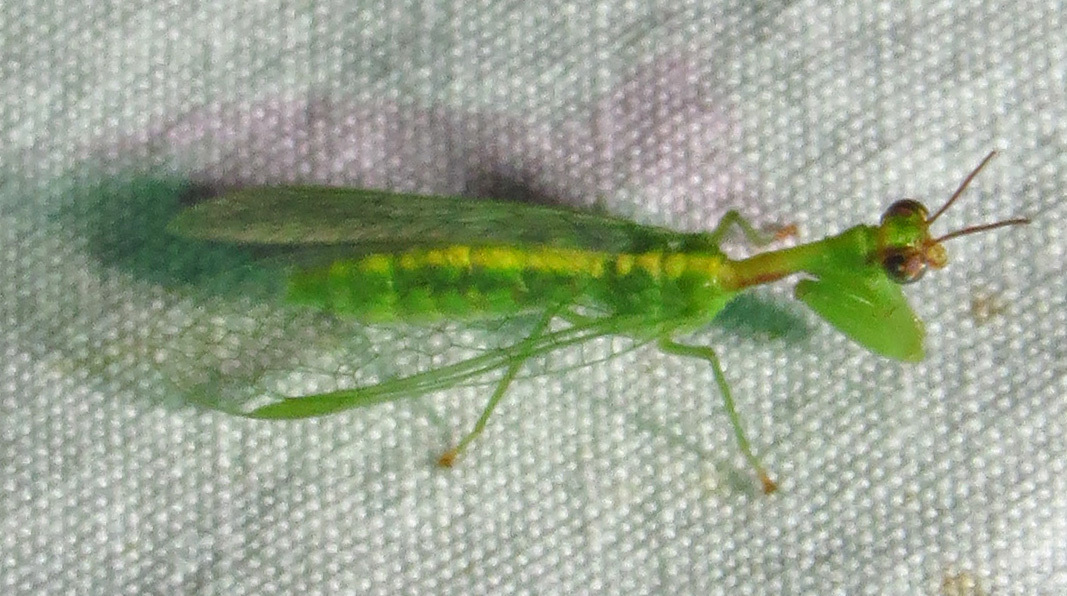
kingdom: Animalia
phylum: Arthropoda
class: Insecta
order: Neuroptera
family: Mantispidae
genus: Zeugomantispa
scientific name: Zeugomantispa minuta
